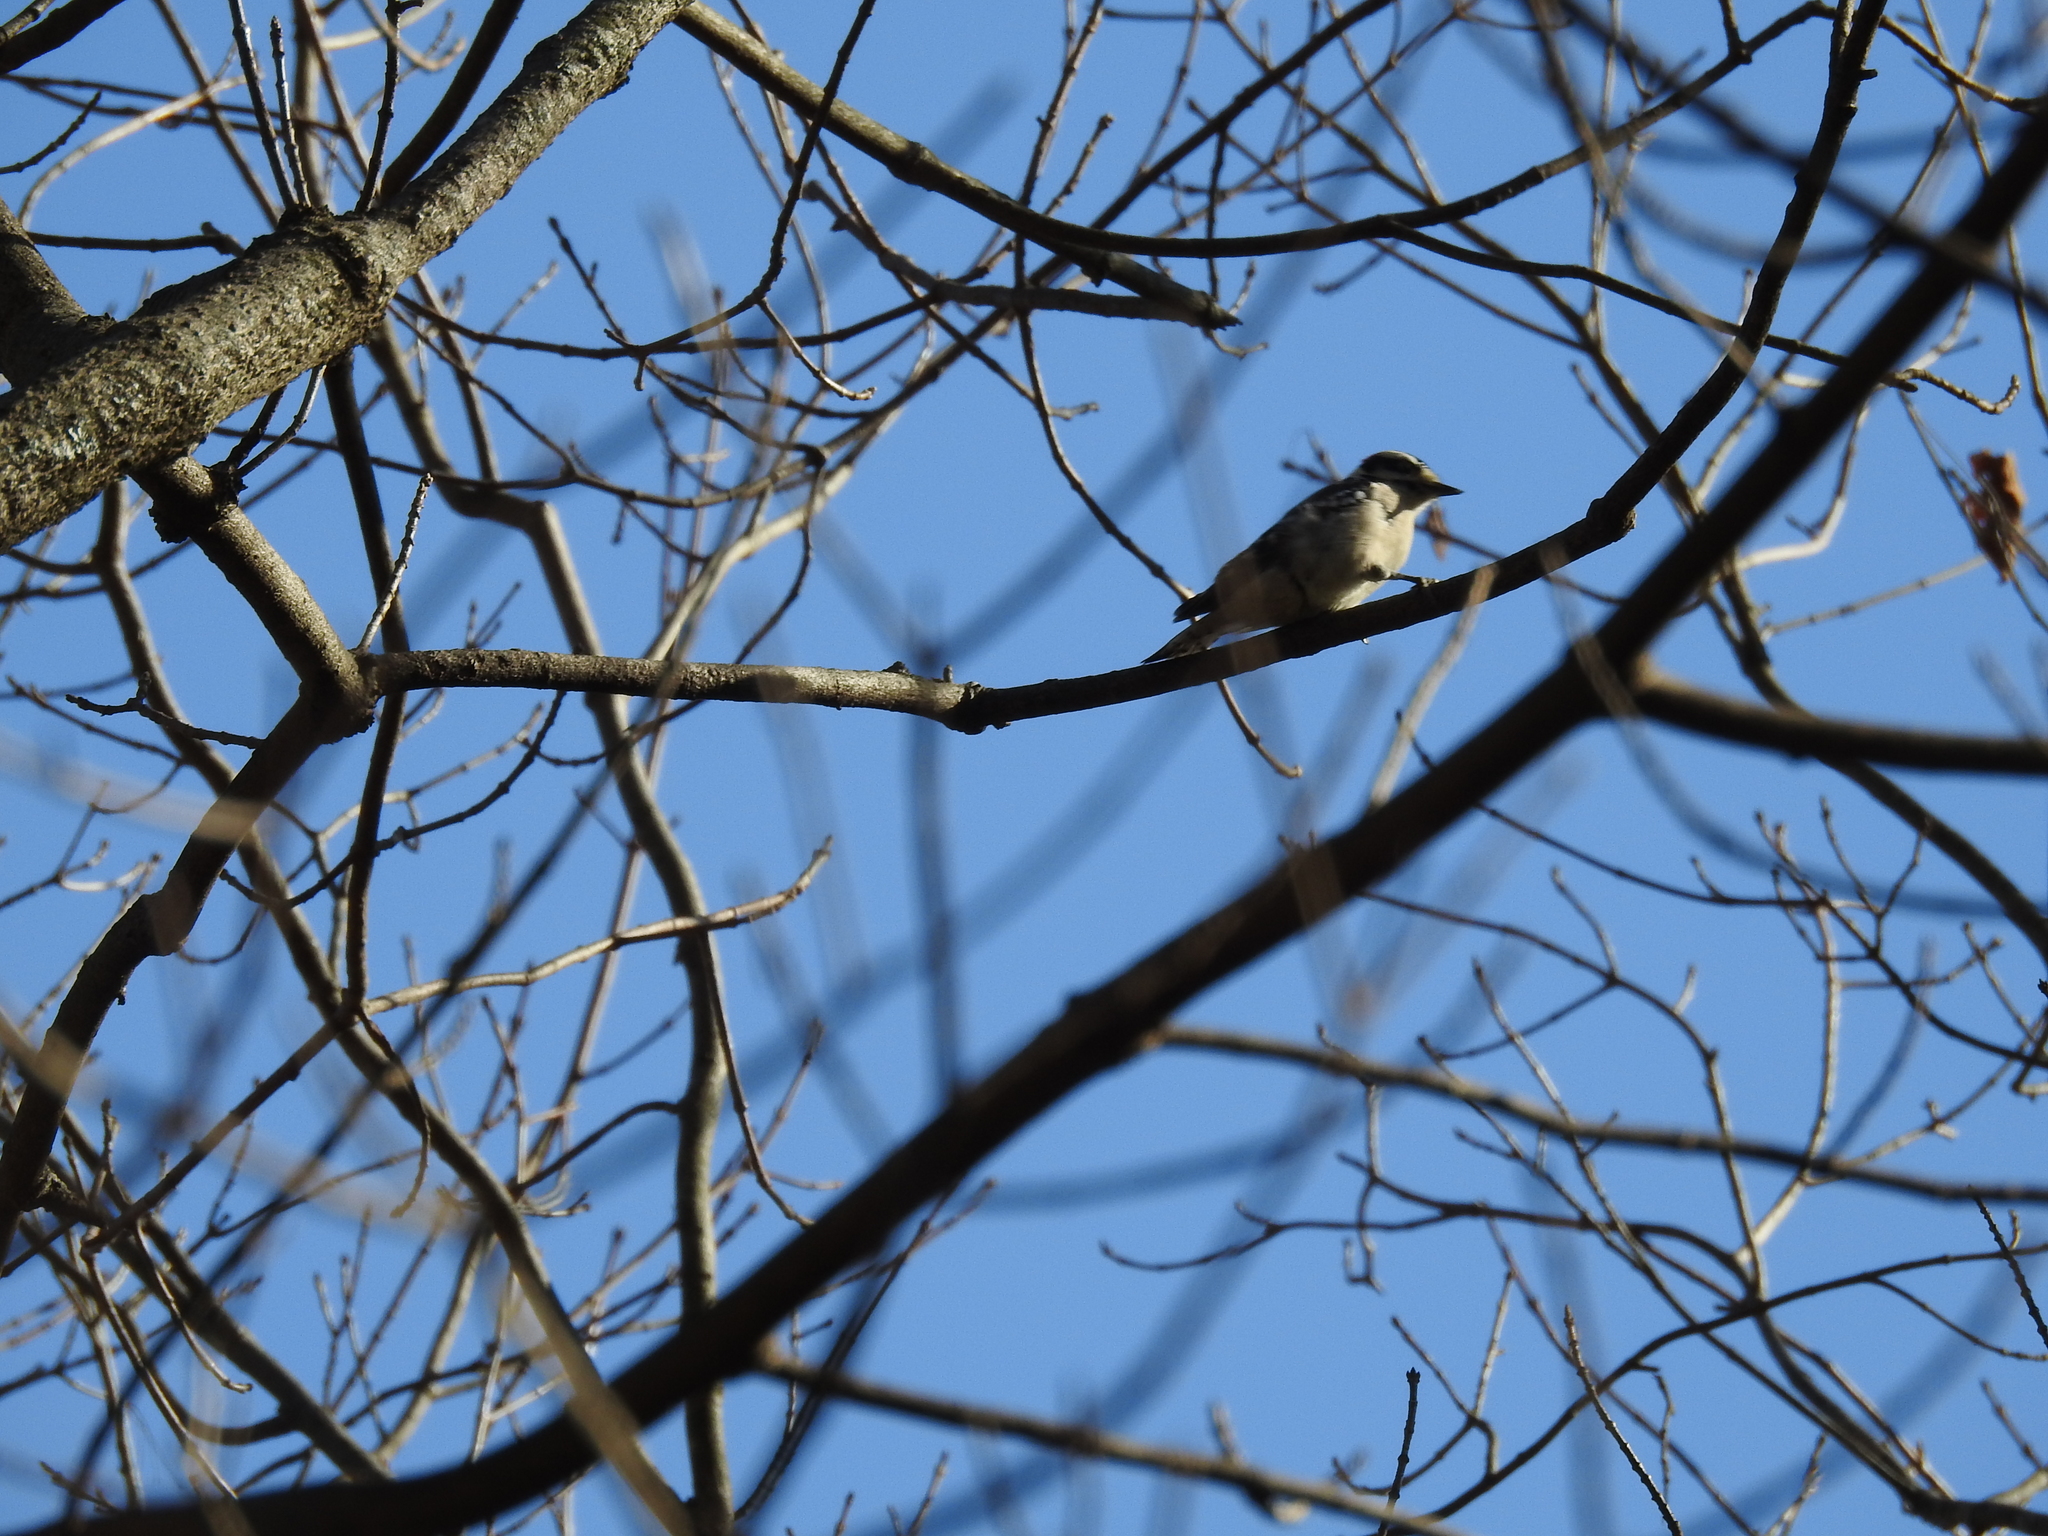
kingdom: Animalia
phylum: Chordata
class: Aves
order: Piciformes
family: Picidae
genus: Dryobates
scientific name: Dryobates pubescens
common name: Downy woodpecker
